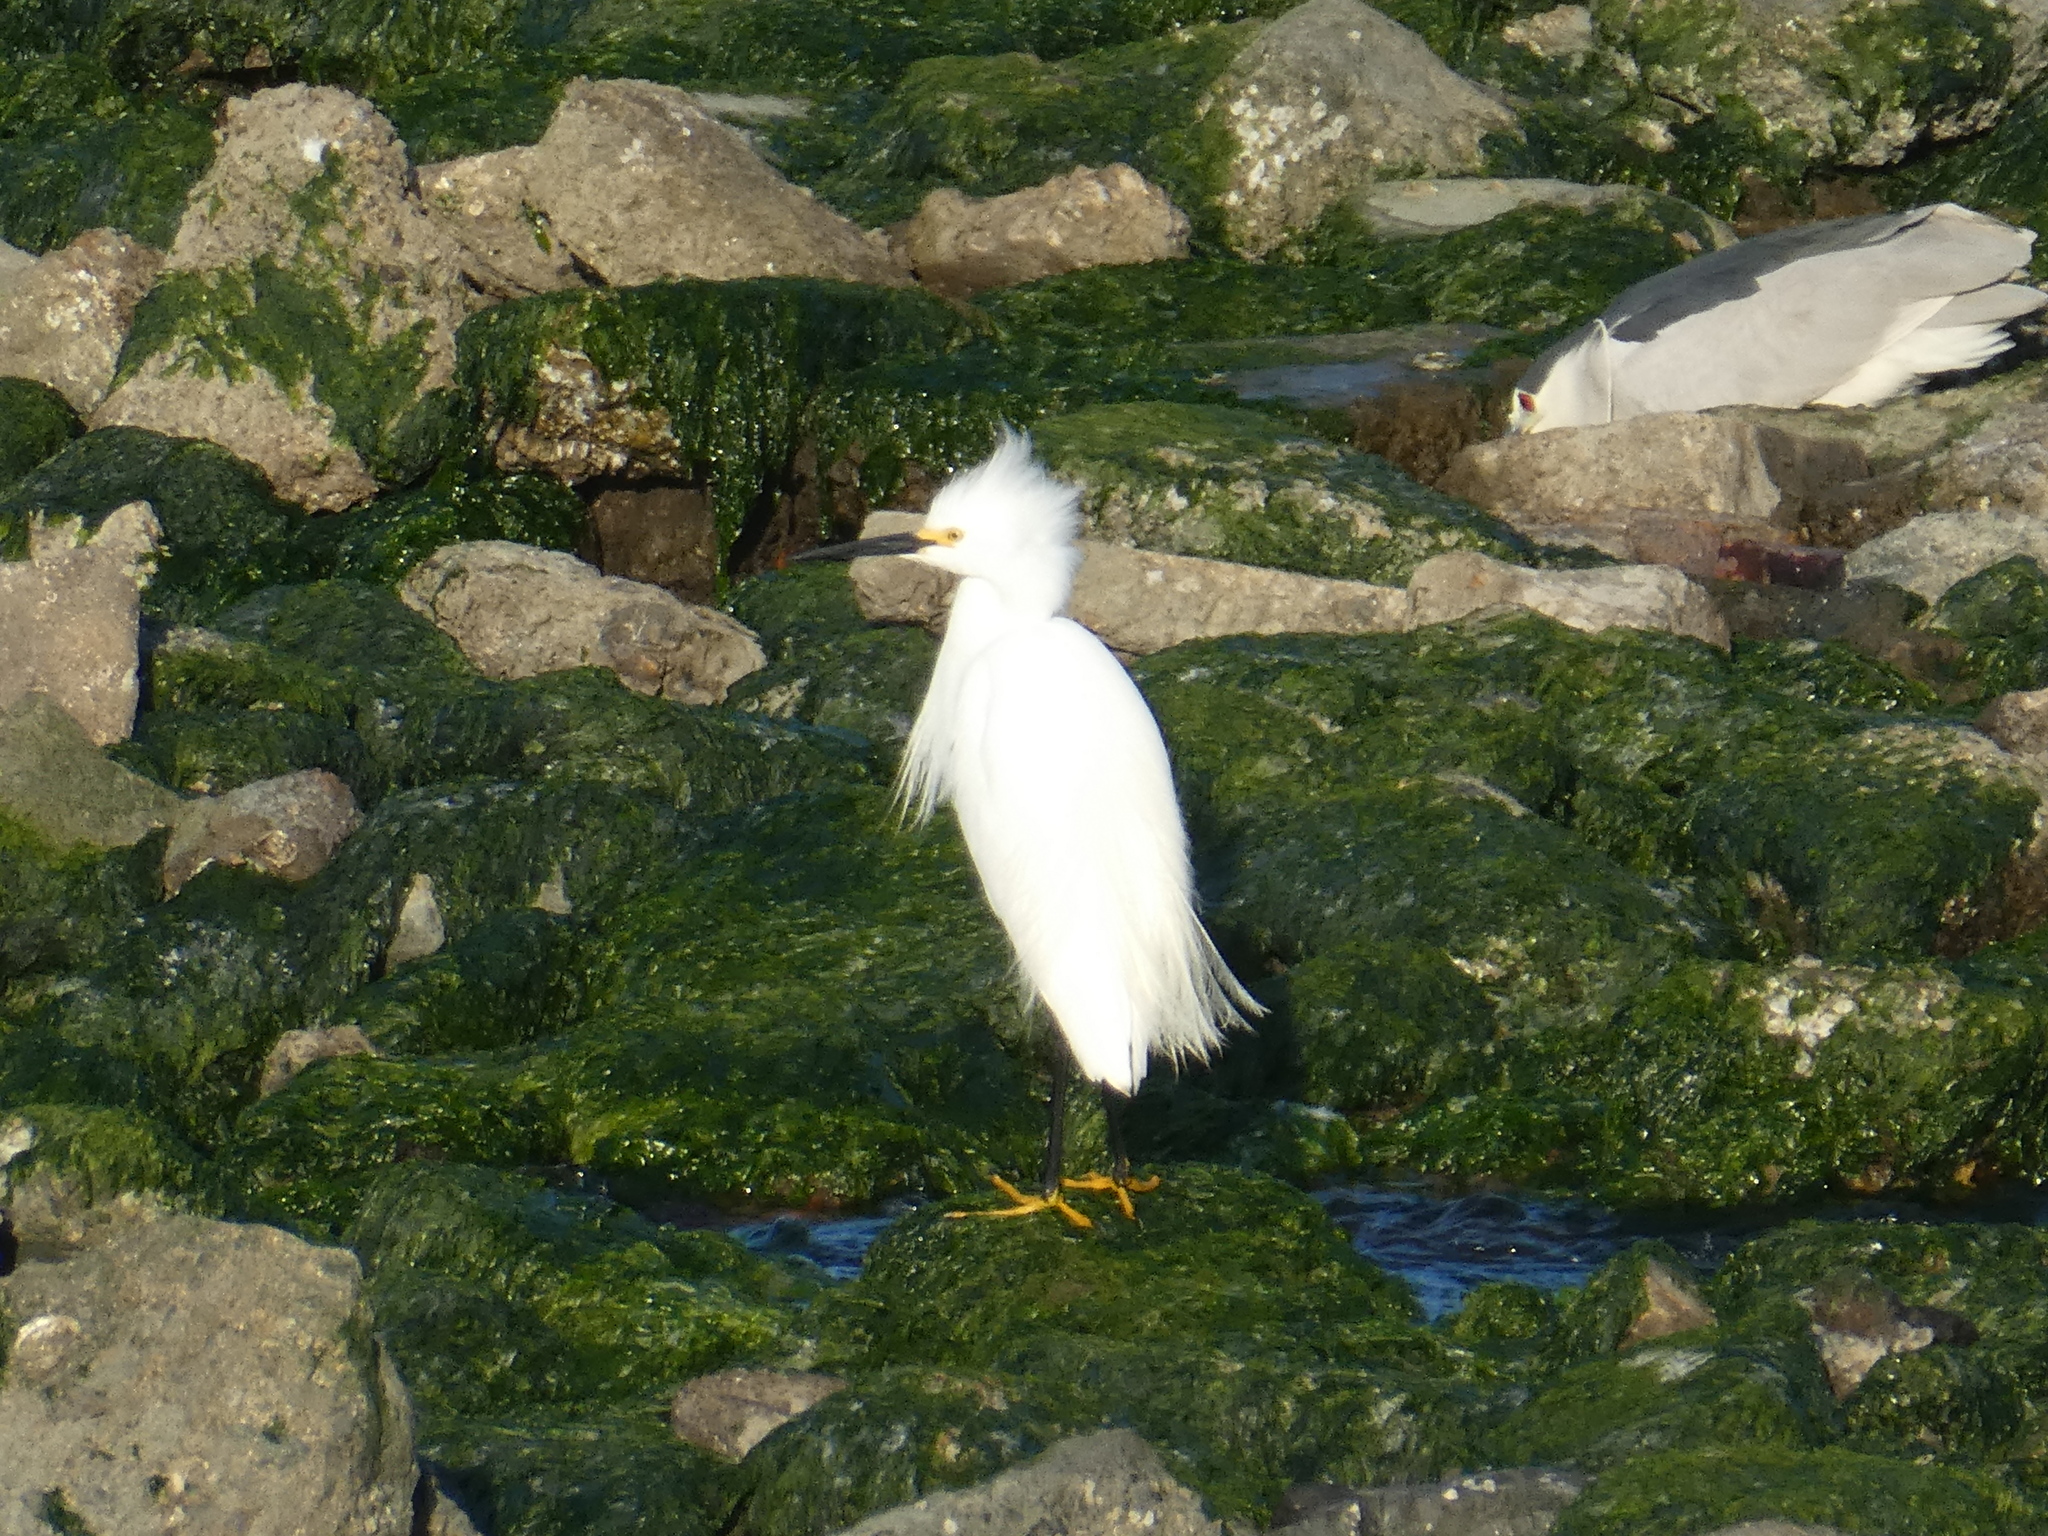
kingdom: Animalia
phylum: Chordata
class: Aves
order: Pelecaniformes
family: Ardeidae
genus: Egretta
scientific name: Egretta thula
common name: Snowy egret
